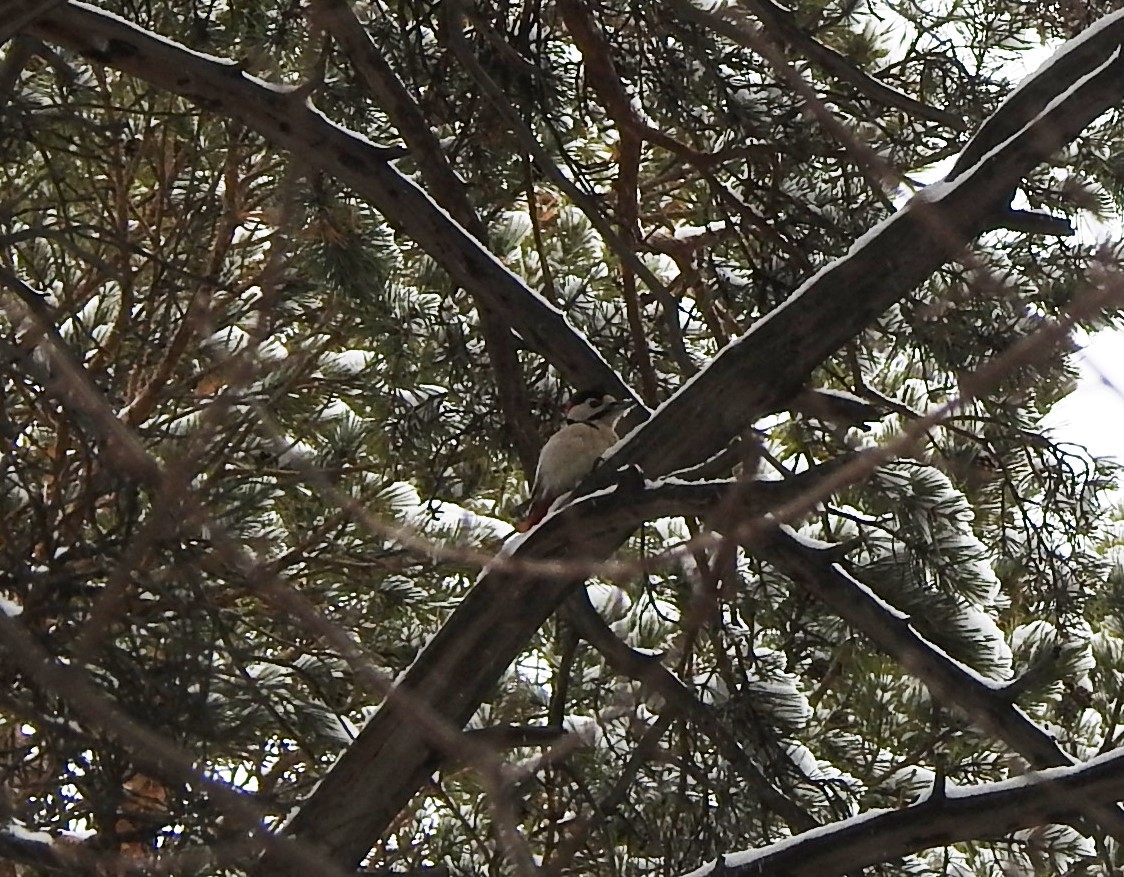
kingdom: Animalia
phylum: Chordata
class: Aves
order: Piciformes
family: Picidae
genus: Dendrocopos
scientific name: Dendrocopos major
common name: Great spotted woodpecker
